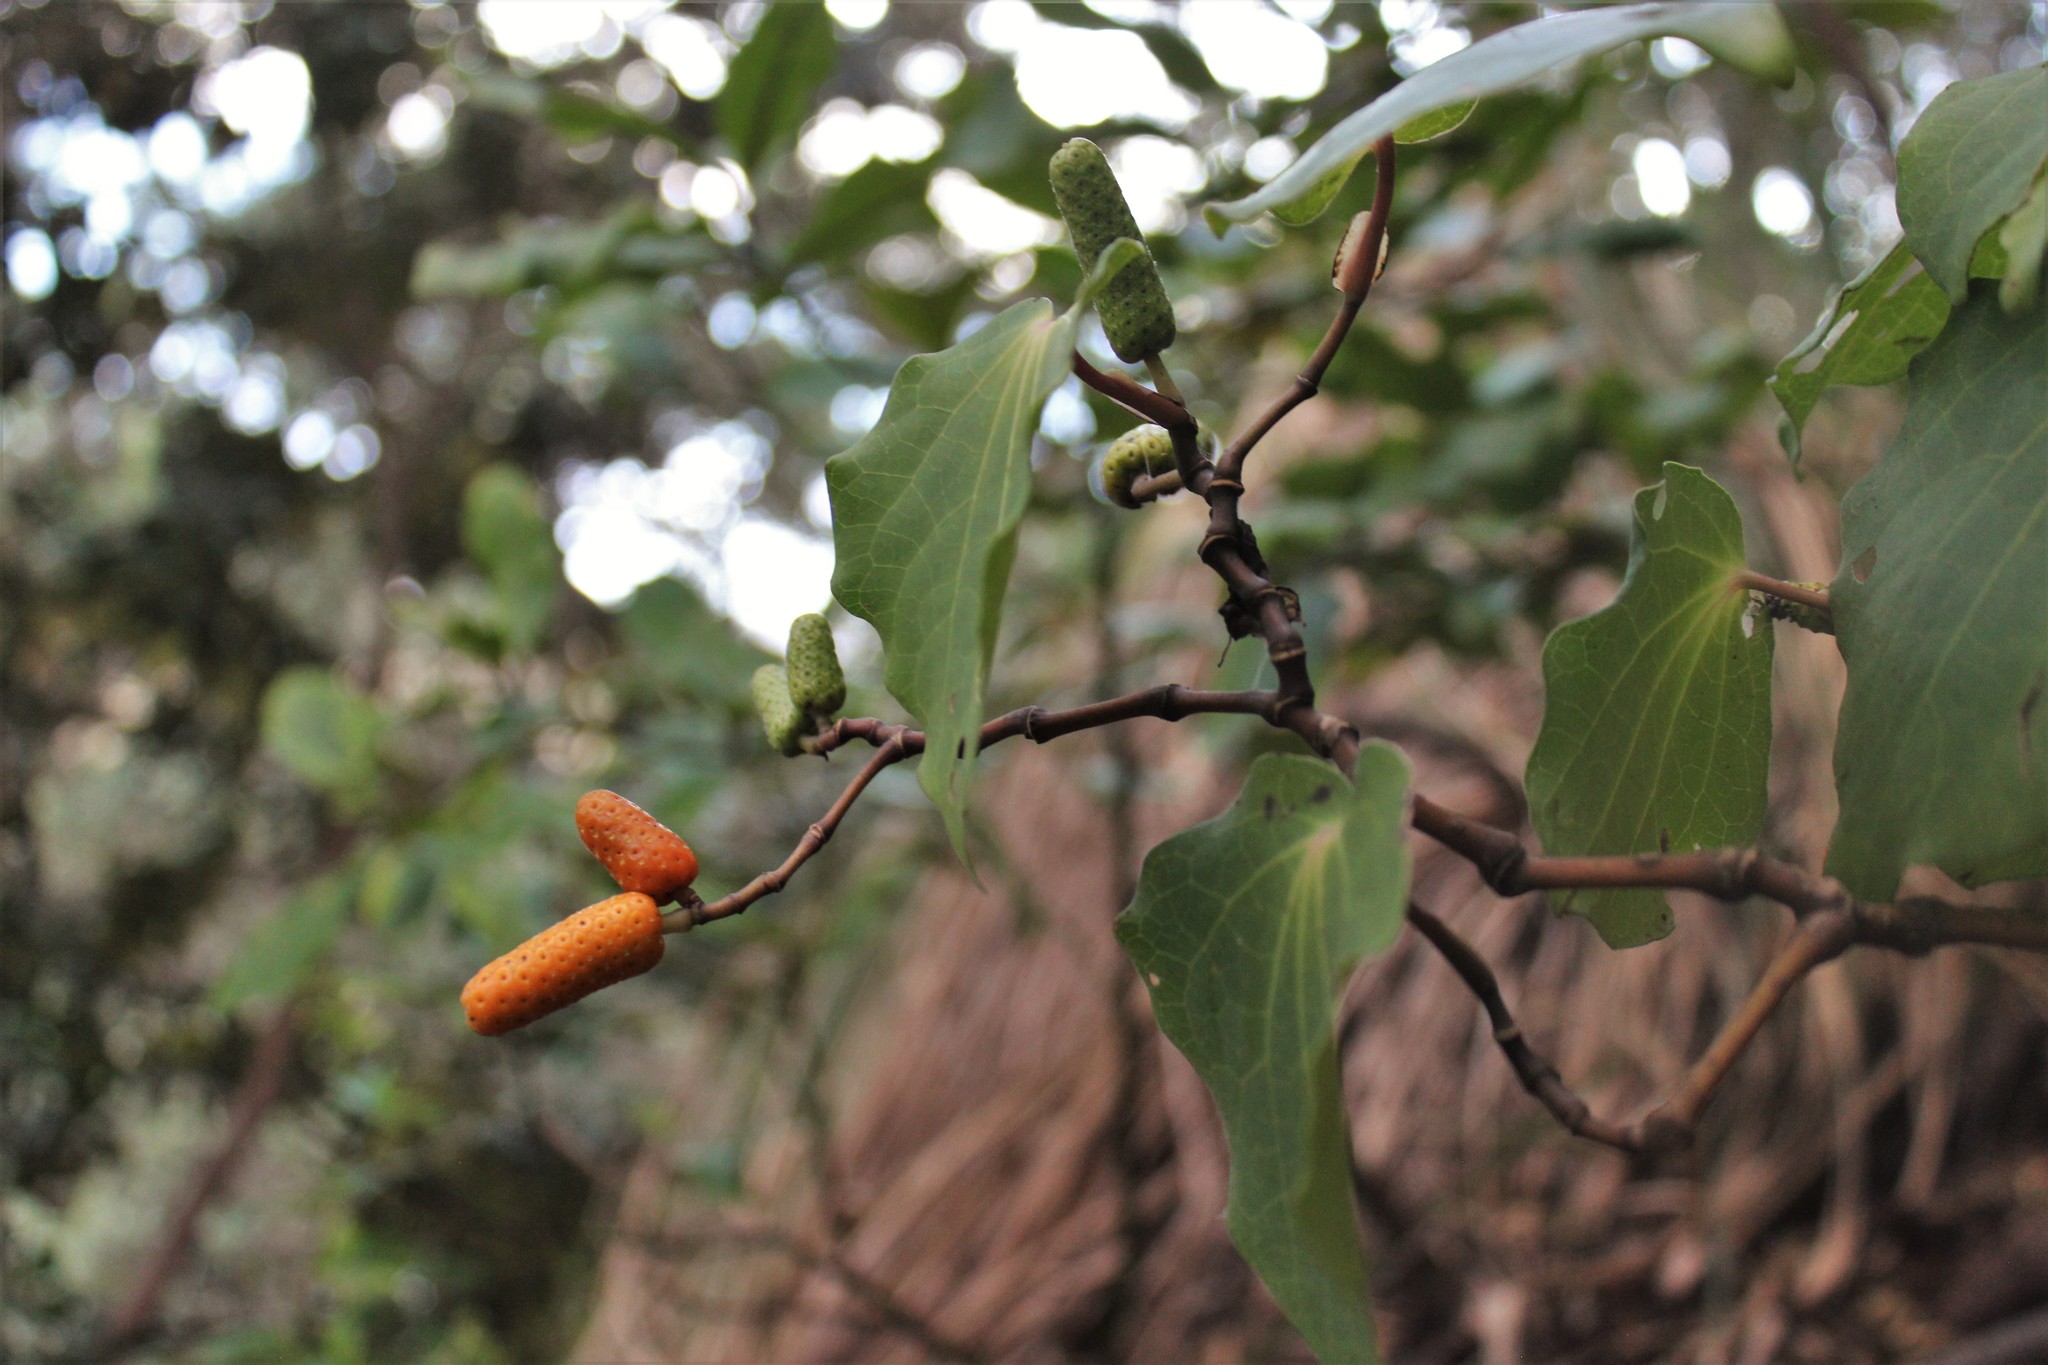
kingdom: Plantae
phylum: Tracheophyta
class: Magnoliopsida
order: Piperales
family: Piperaceae
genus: Macropiper
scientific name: Macropiper excelsum
